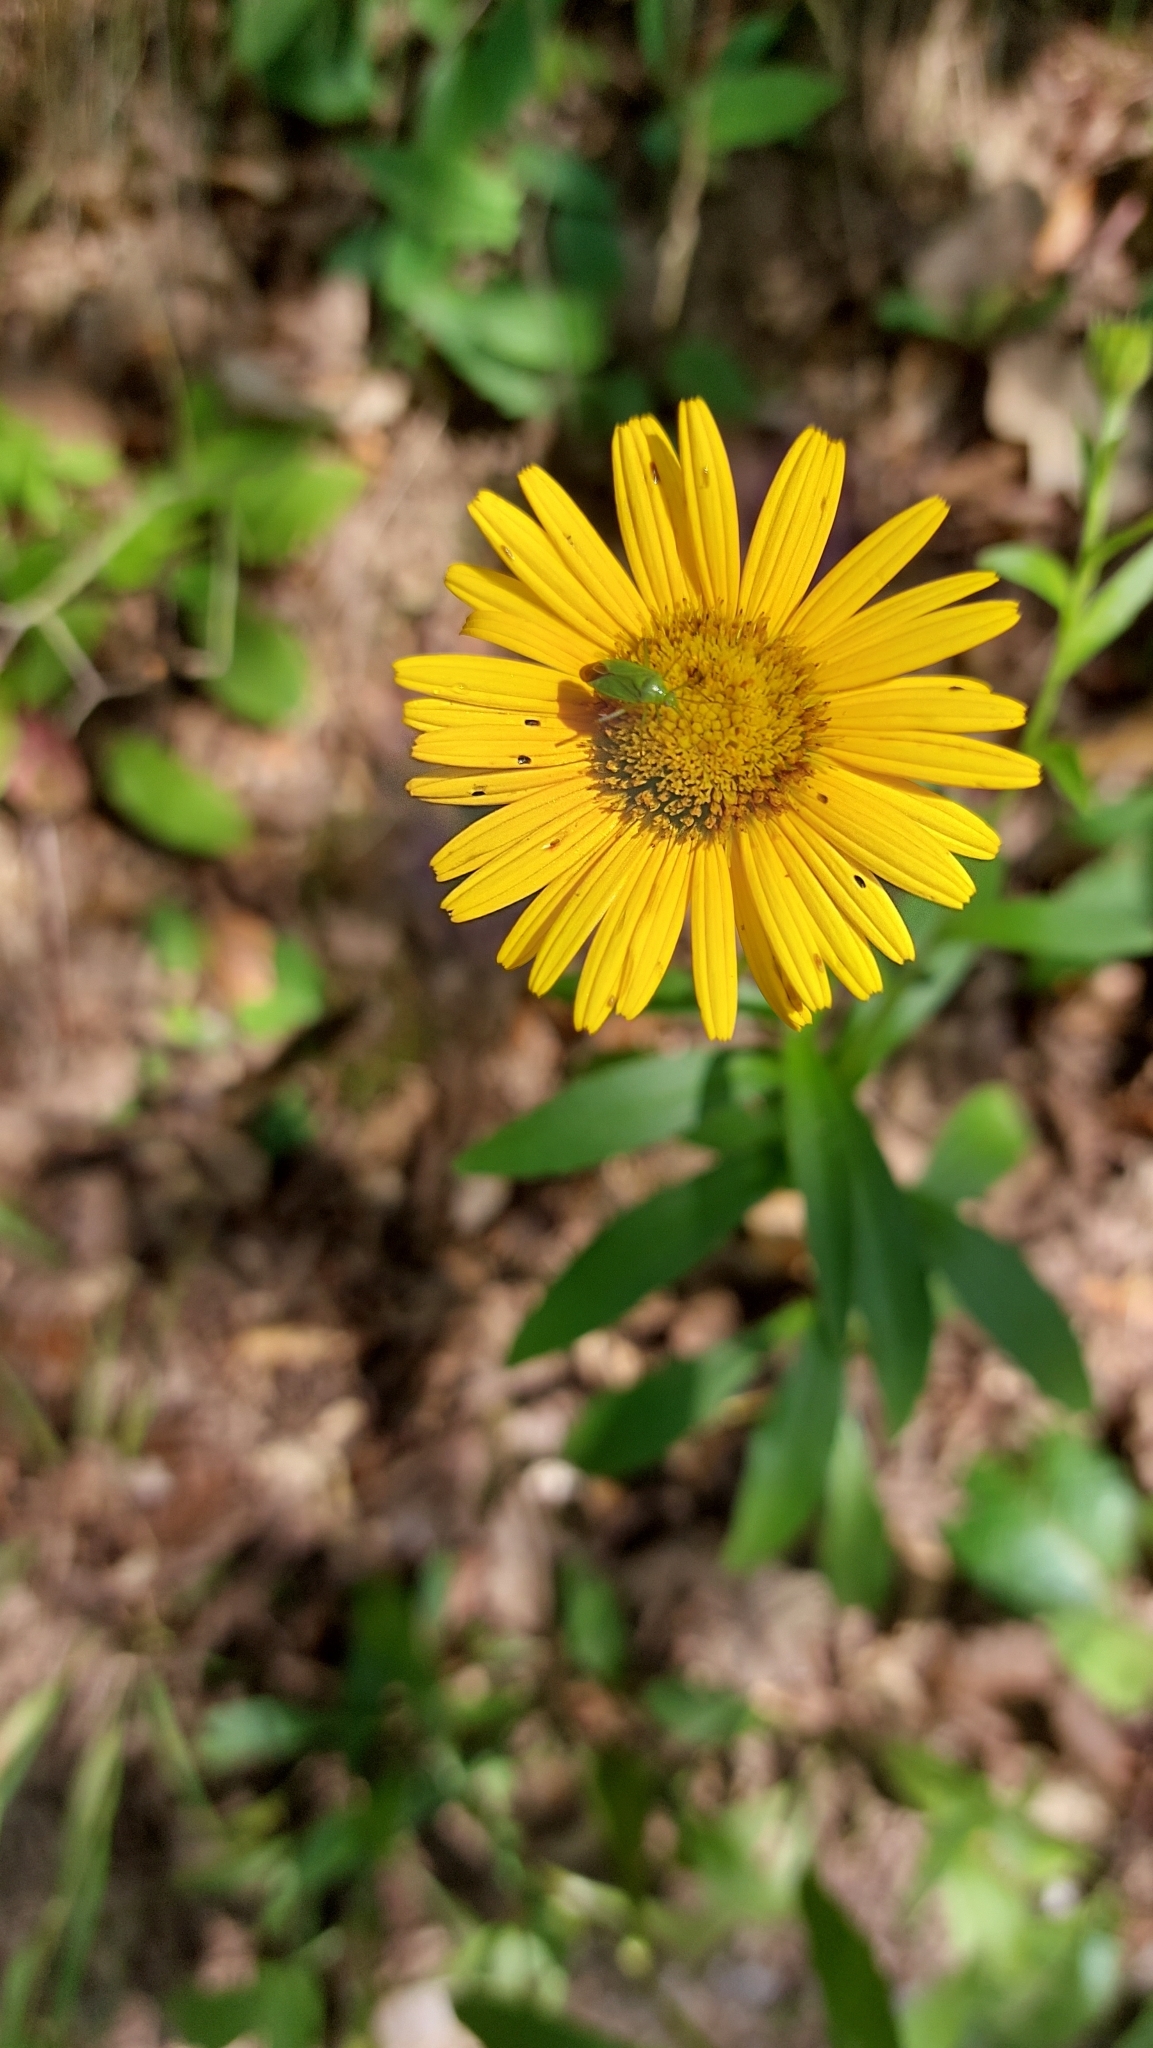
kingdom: Plantae
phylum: Tracheophyta
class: Magnoliopsida
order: Asterales
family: Asteraceae
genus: Buphthalmum
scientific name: Buphthalmum salicifolium
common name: Willow-leaved yellow-oxeye
